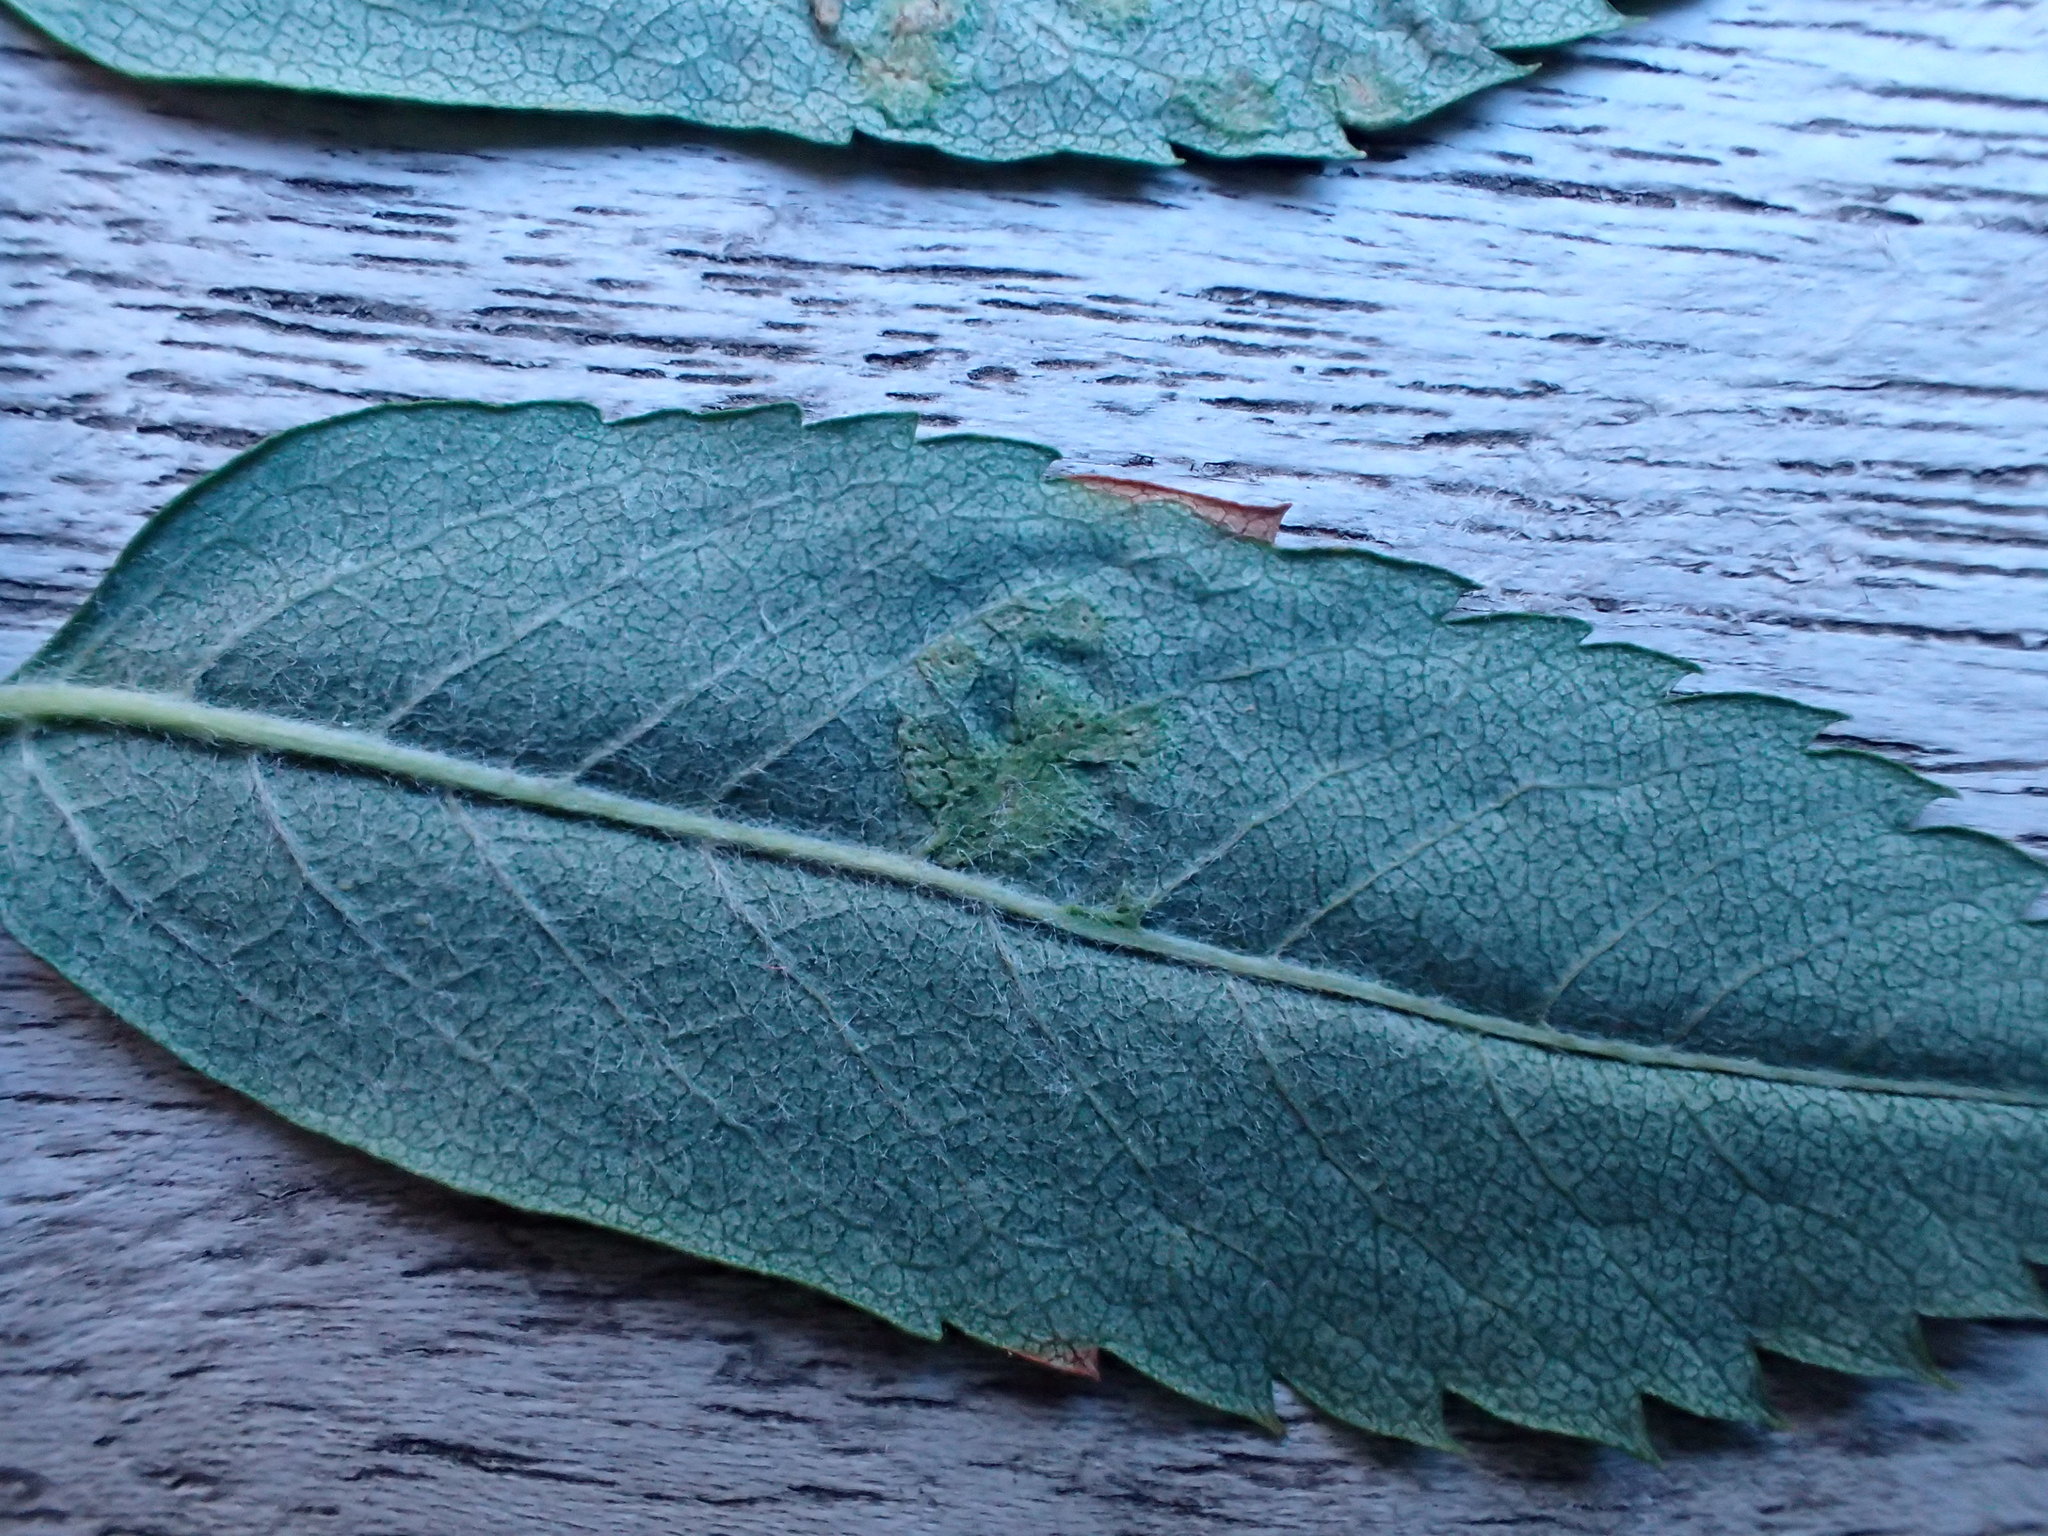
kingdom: Animalia
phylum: Arthropoda
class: Arachnida
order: Trombidiformes
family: Eriophyidae
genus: Eriophyes
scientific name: Eriophyes sorbi
